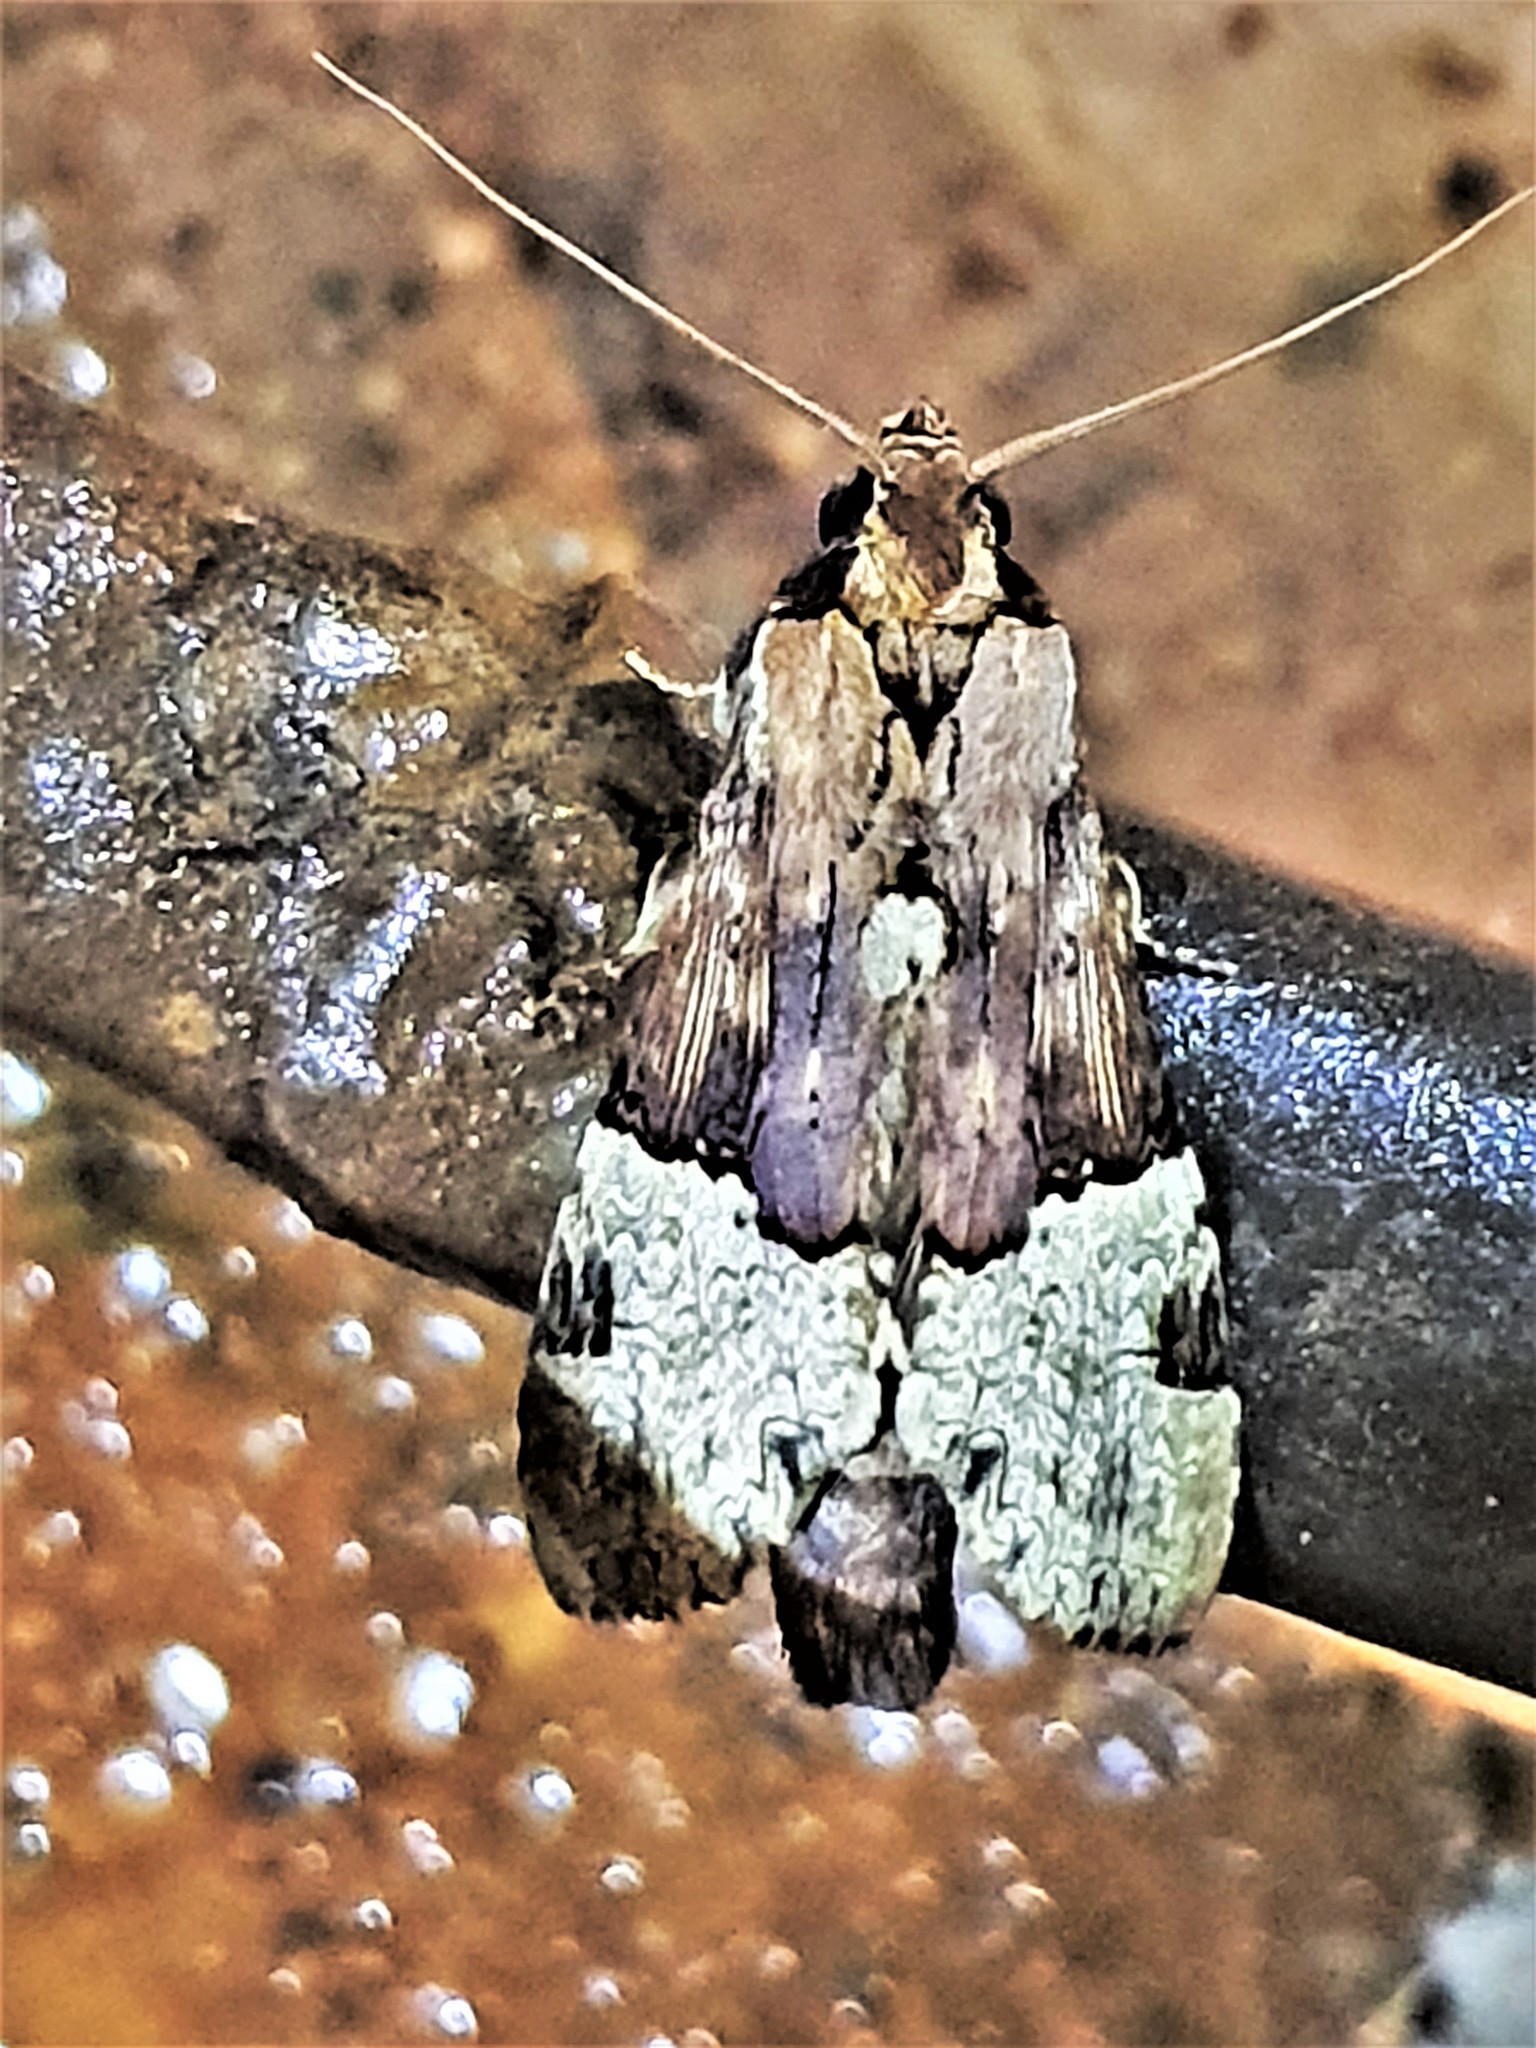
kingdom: Animalia
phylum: Arthropoda
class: Insecta
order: Lepidoptera
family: Notodontidae
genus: Nystalea
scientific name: Nystalea aequipars
